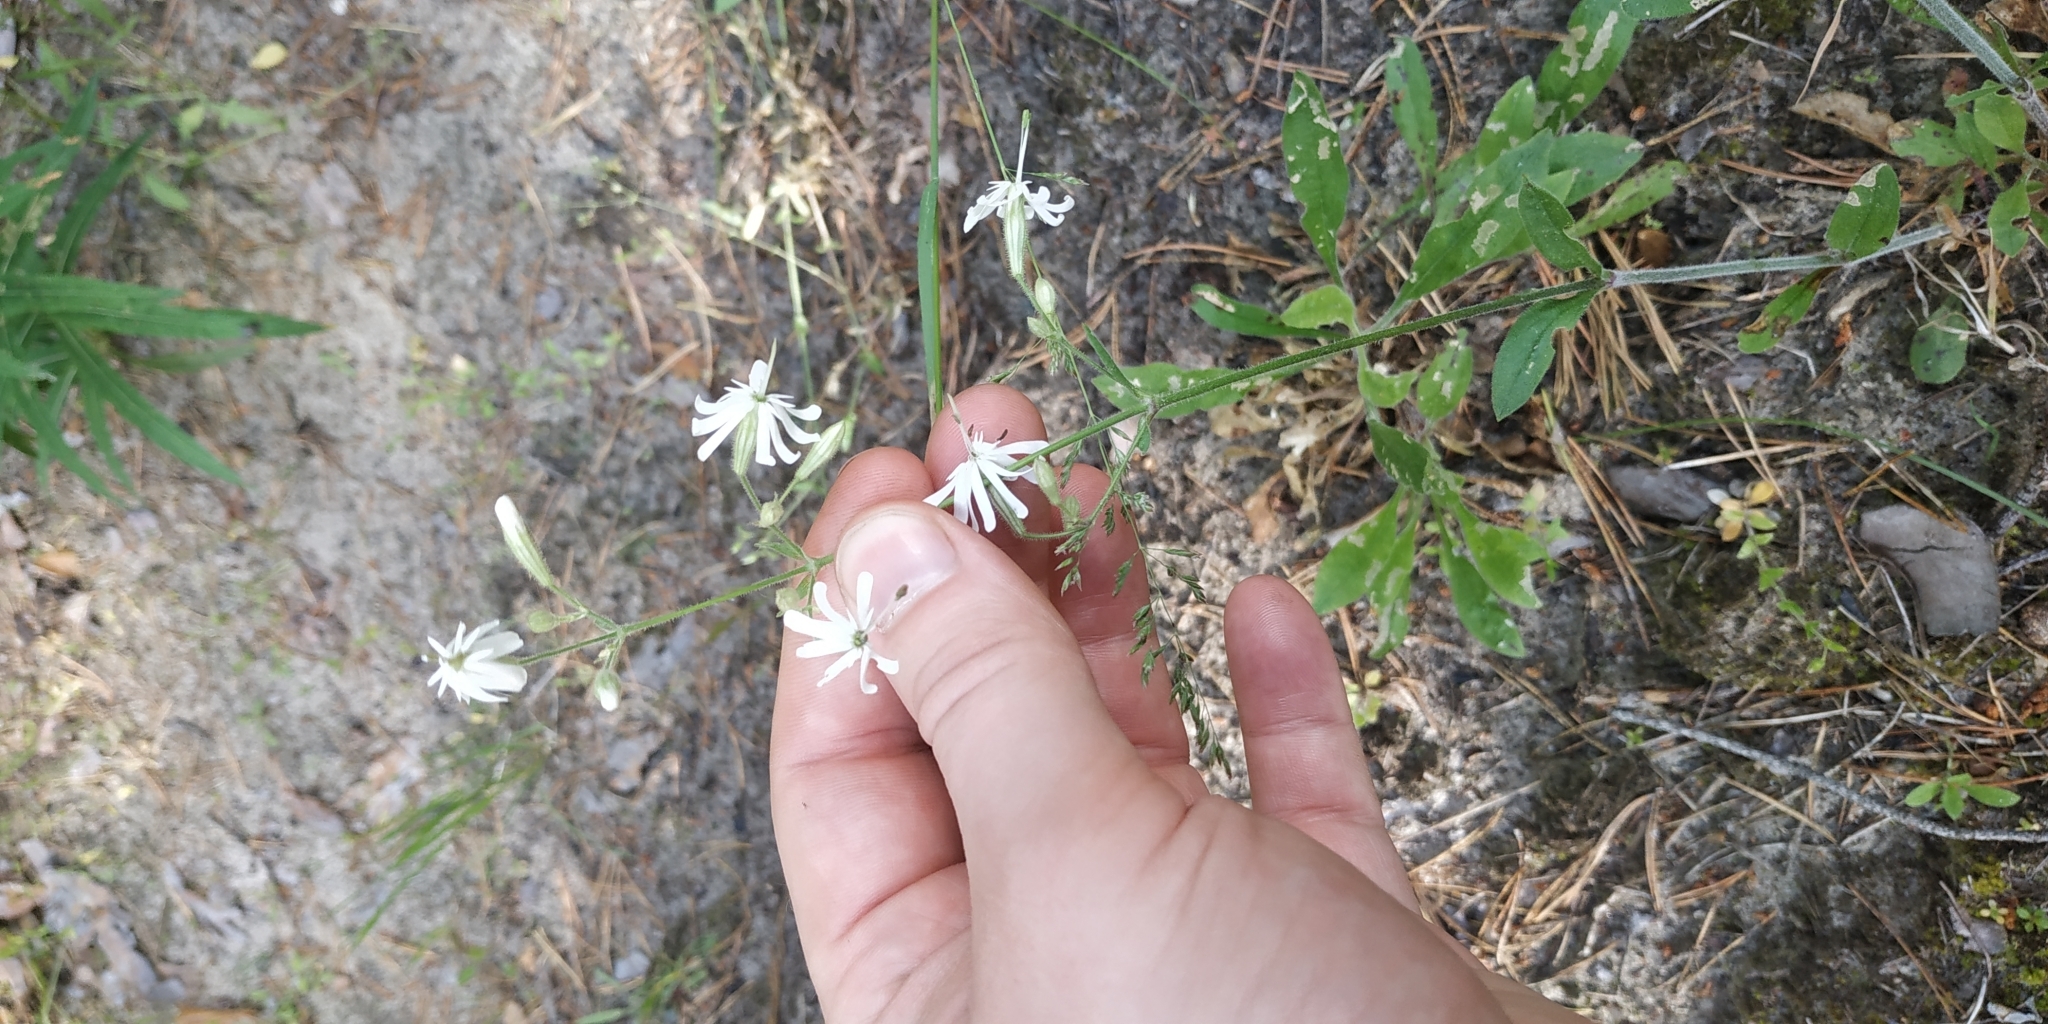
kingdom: Plantae
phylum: Tracheophyta
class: Magnoliopsida
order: Caryophyllales
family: Caryophyllaceae
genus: Silene
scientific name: Silene nutans
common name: Nottingham catchfly
